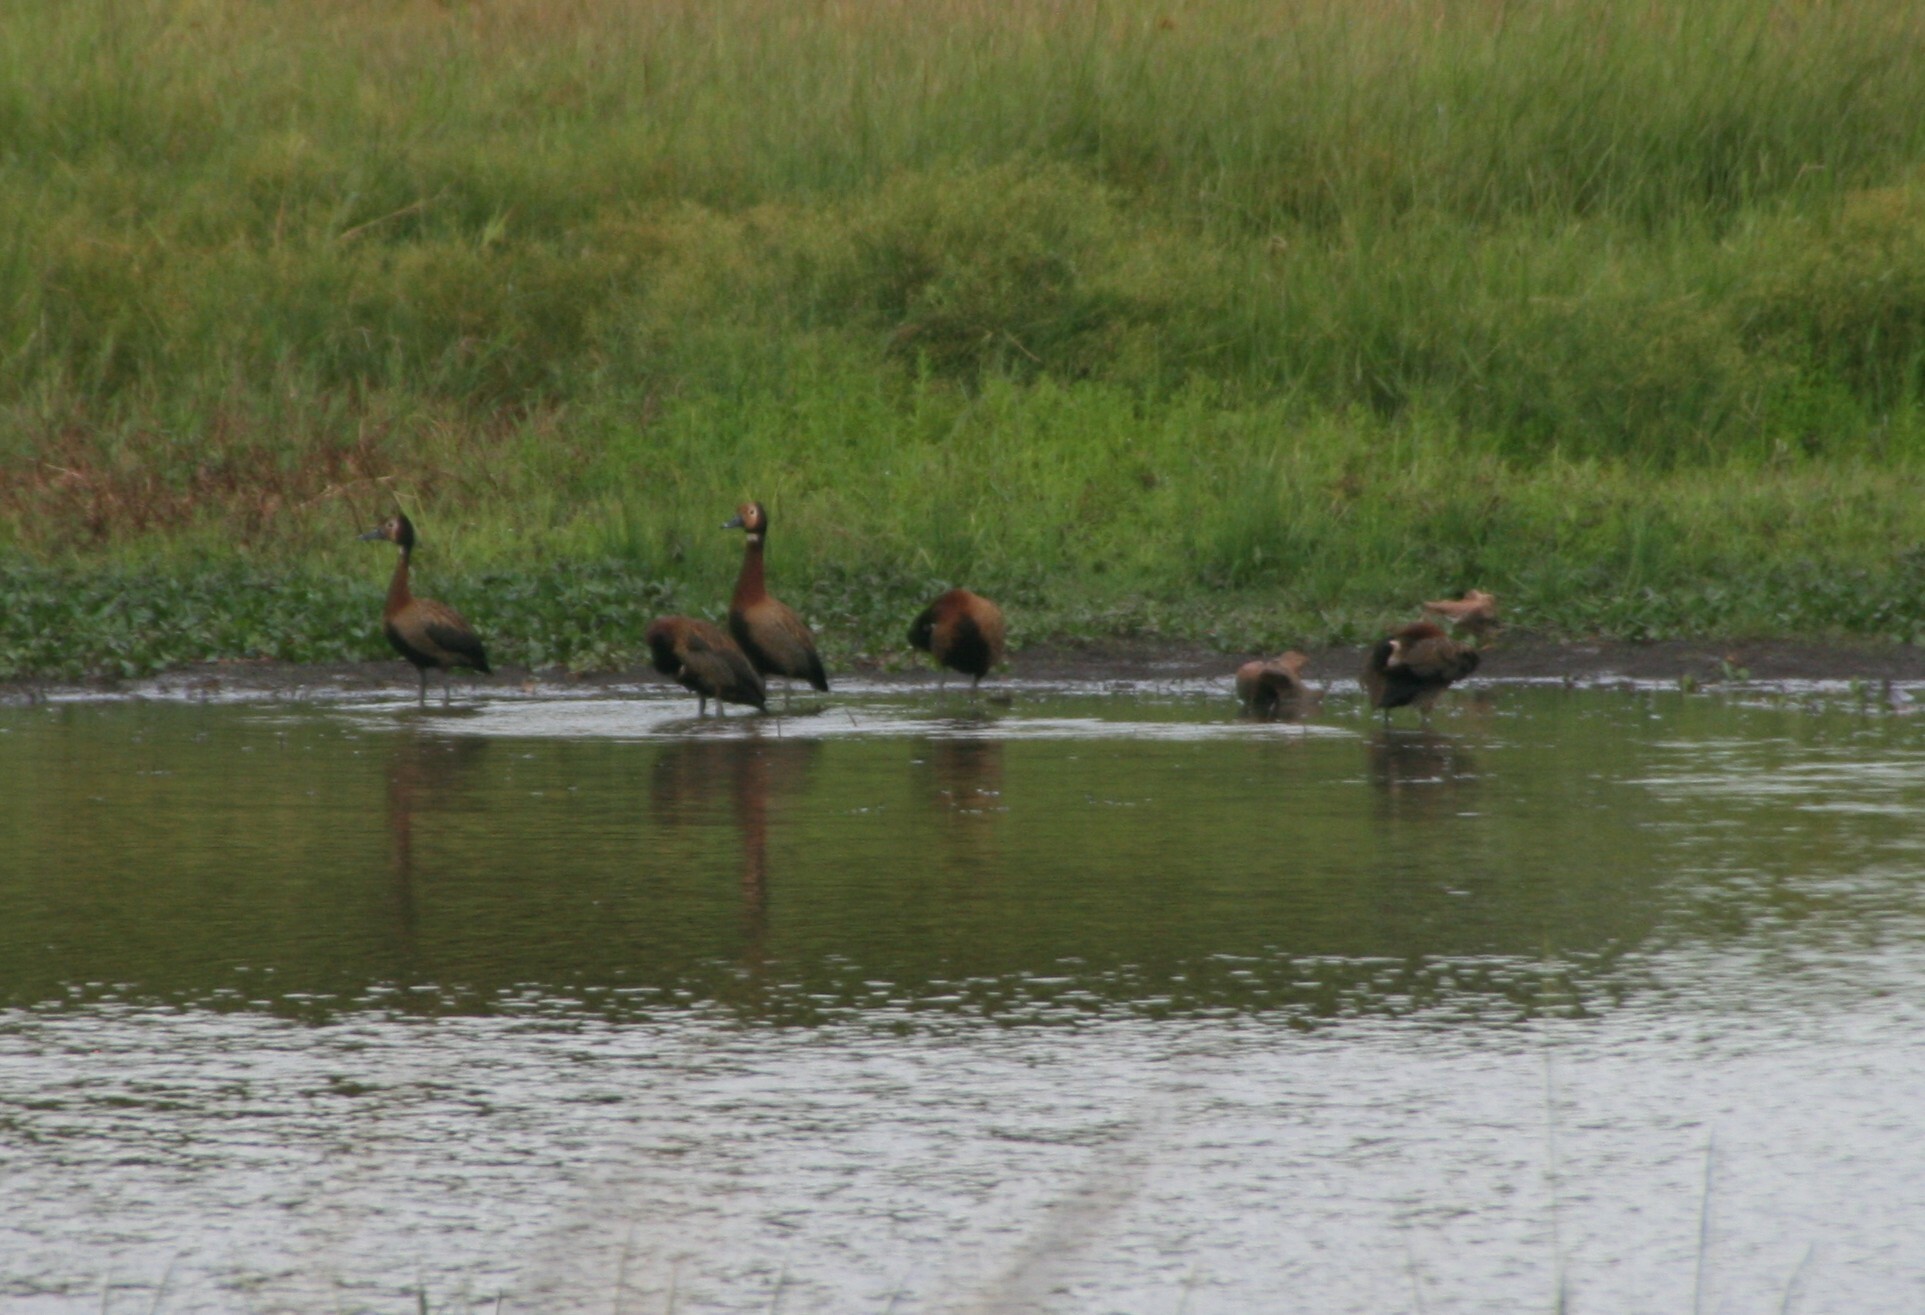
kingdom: Animalia
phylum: Chordata
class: Aves
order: Anseriformes
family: Anatidae
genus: Dendrocygna
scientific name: Dendrocygna viduata
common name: White-faced whistling duck
